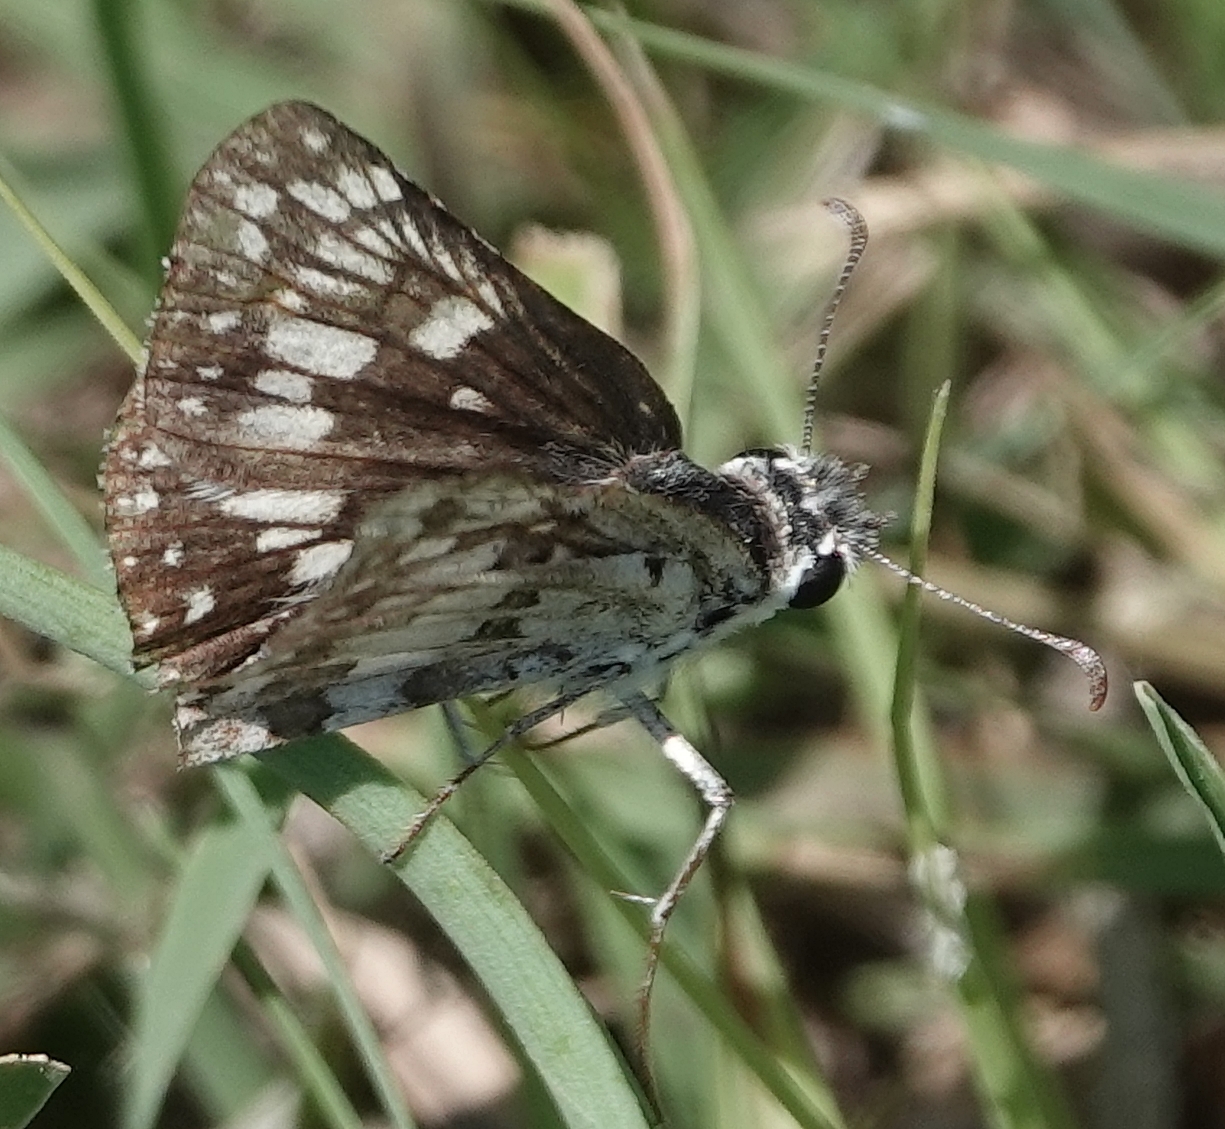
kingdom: Animalia
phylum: Arthropoda
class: Insecta
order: Lepidoptera
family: Hesperiidae
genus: Burnsius
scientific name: Burnsius communis
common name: Common checkered-skipper
